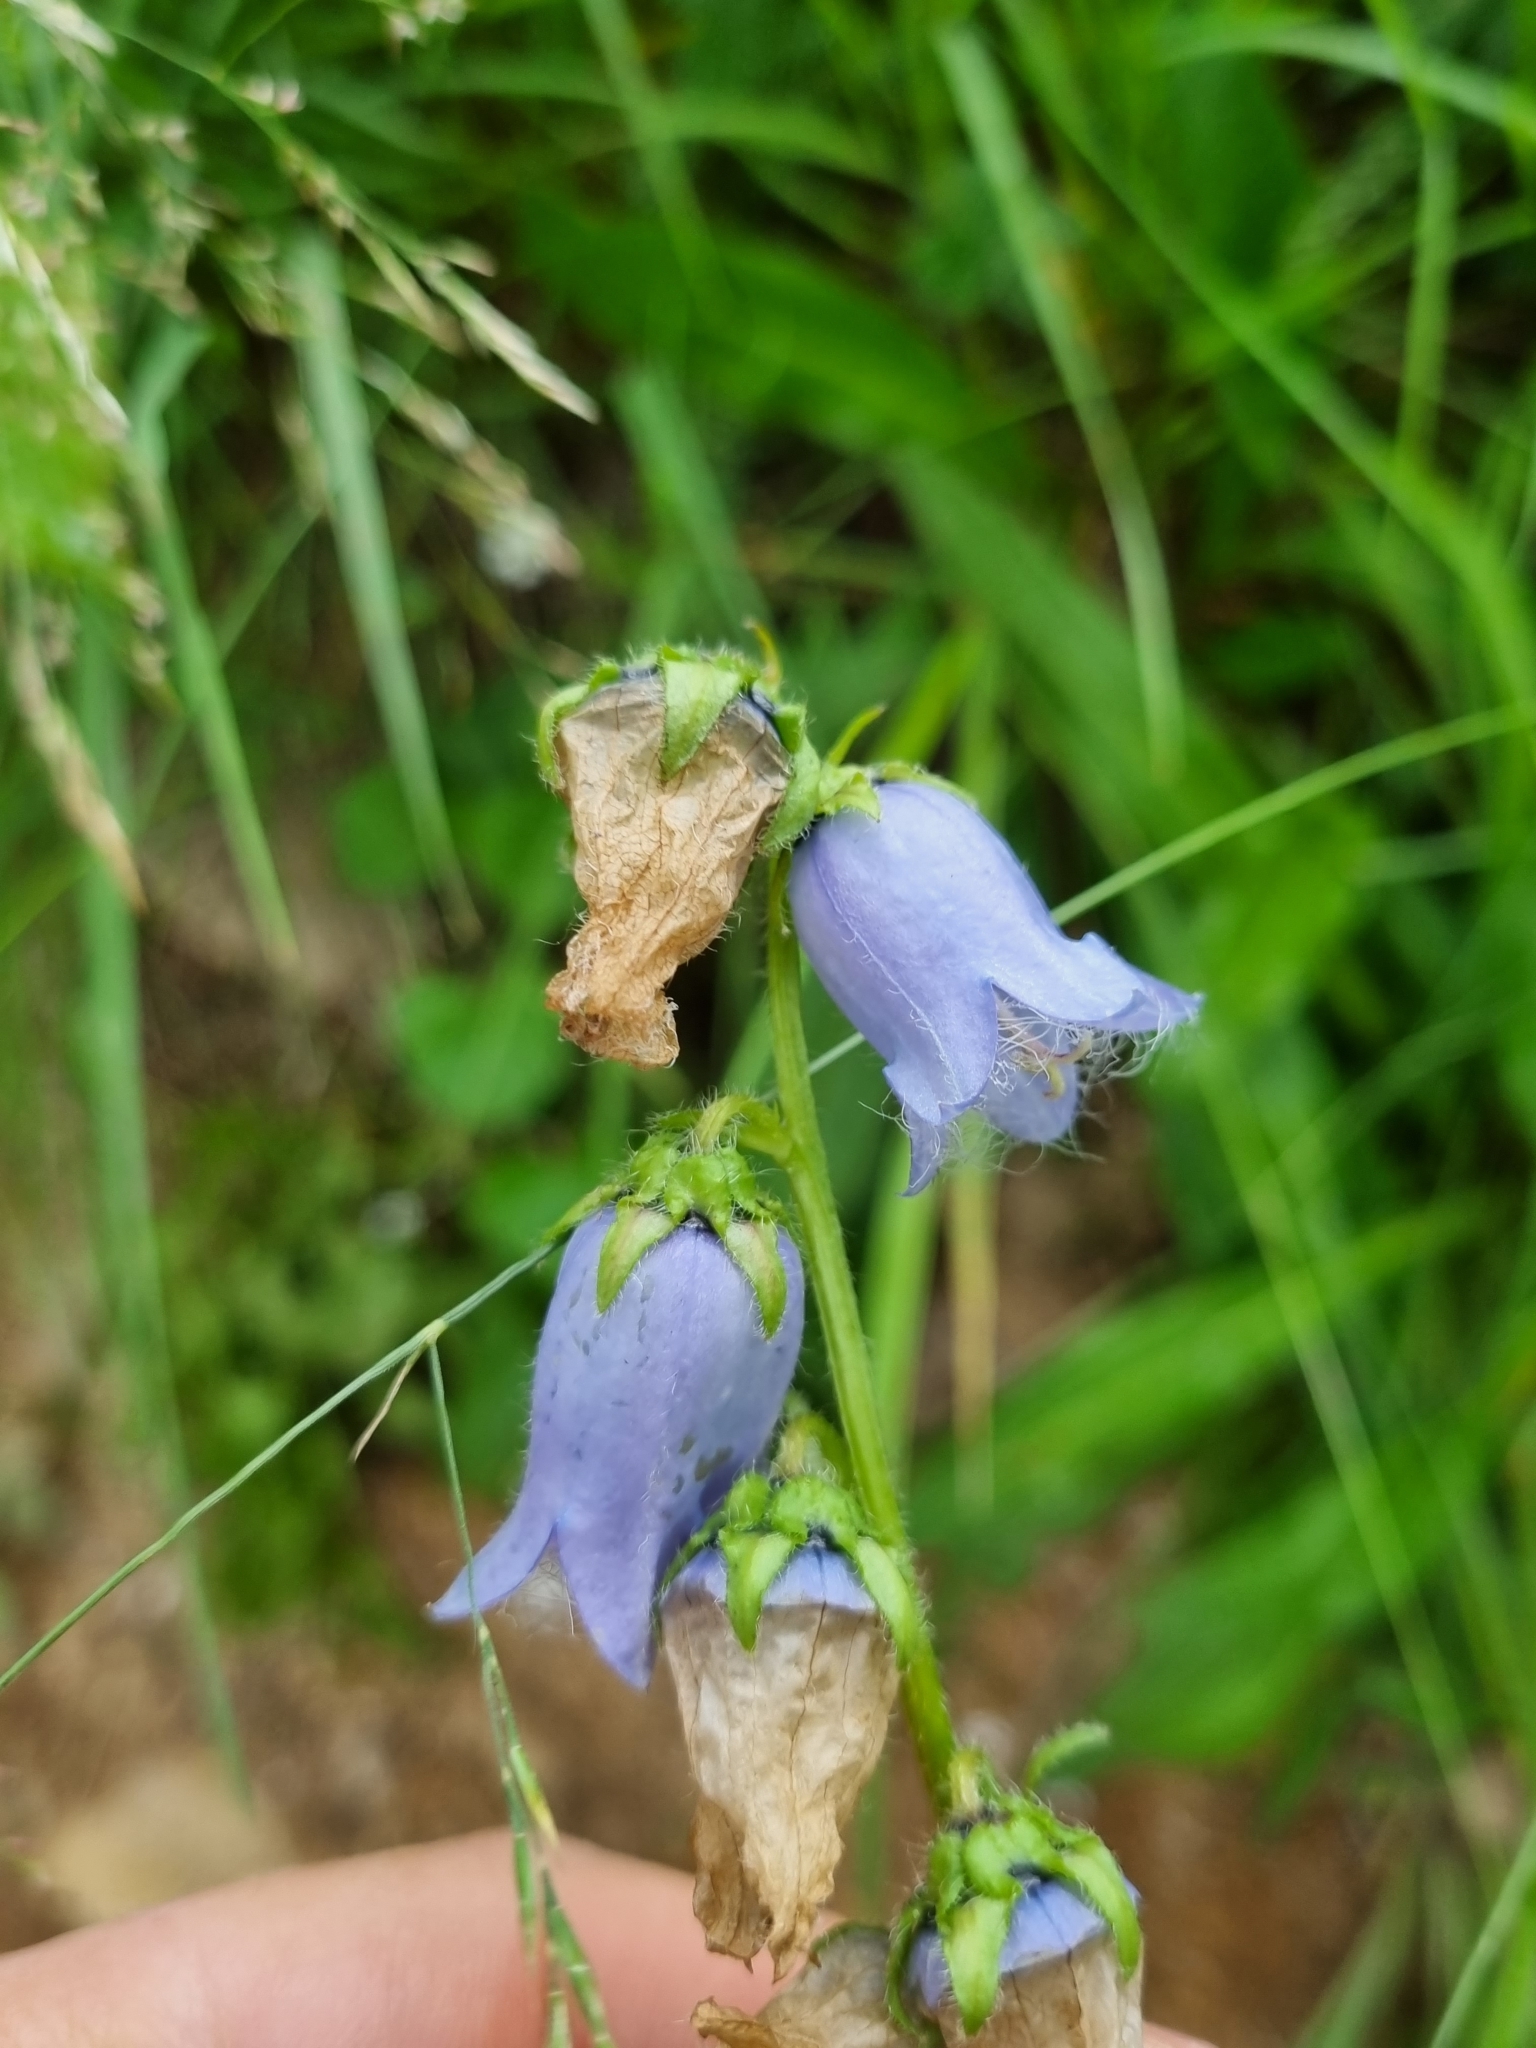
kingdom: Plantae
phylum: Tracheophyta
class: Magnoliopsida
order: Asterales
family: Campanulaceae
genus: Campanula
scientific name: Campanula barbata
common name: Bearded bellflower
